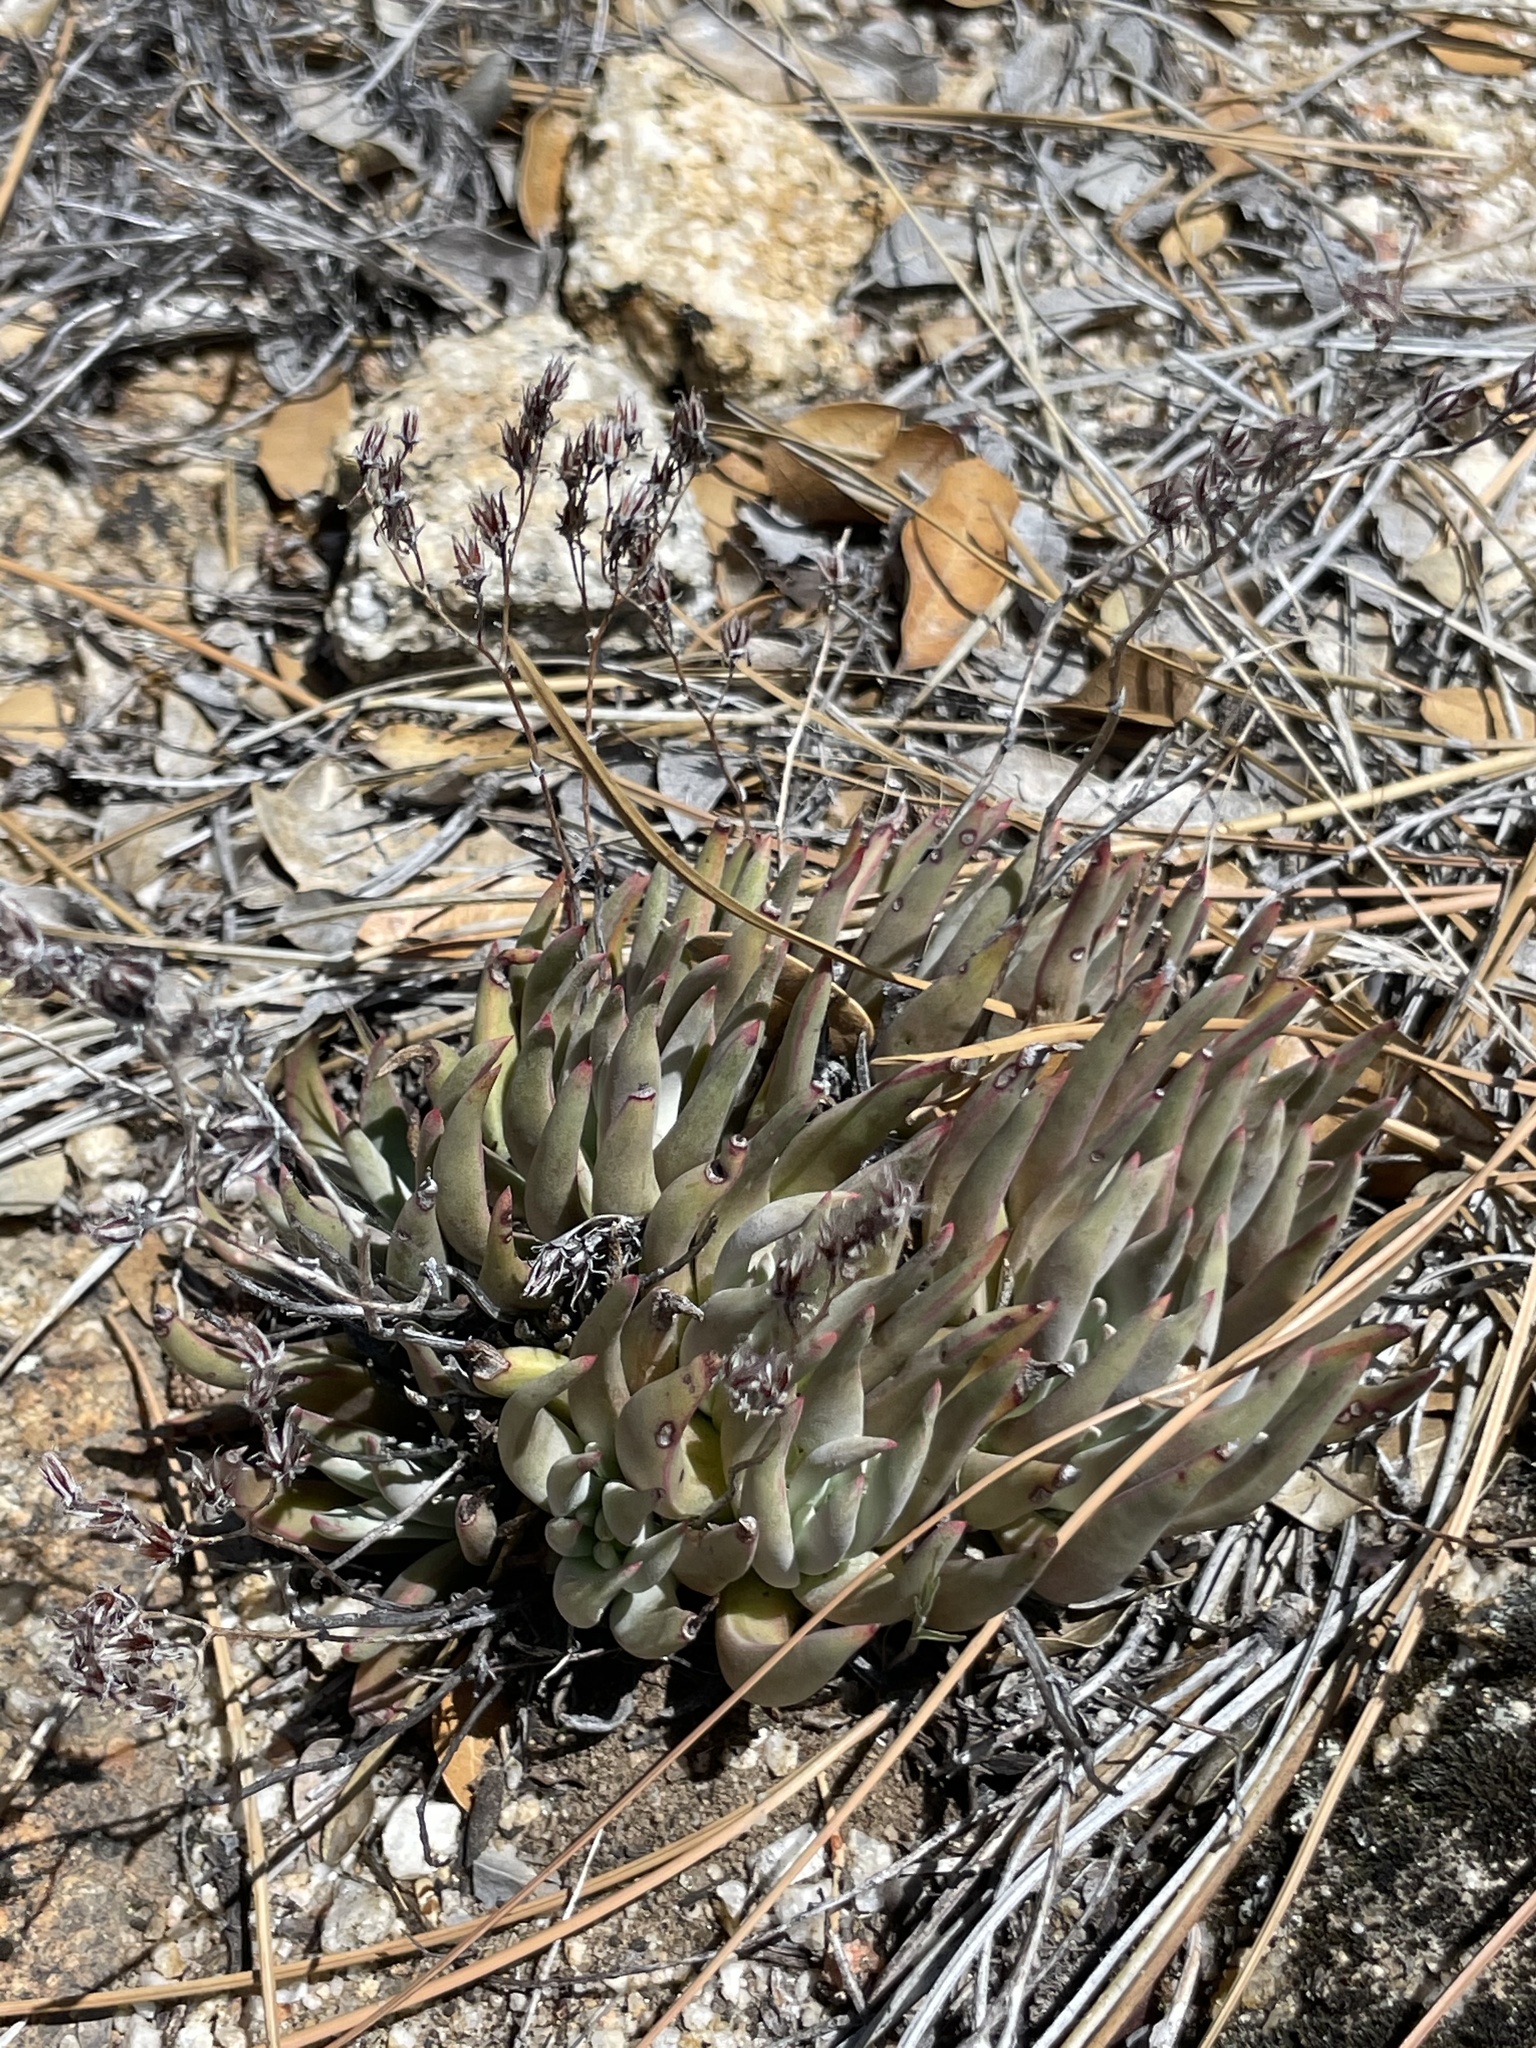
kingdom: Plantae
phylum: Tracheophyta
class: Magnoliopsida
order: Saxifragales
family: Crassulaceae
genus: Dudleya
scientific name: Dudleya abramsii
